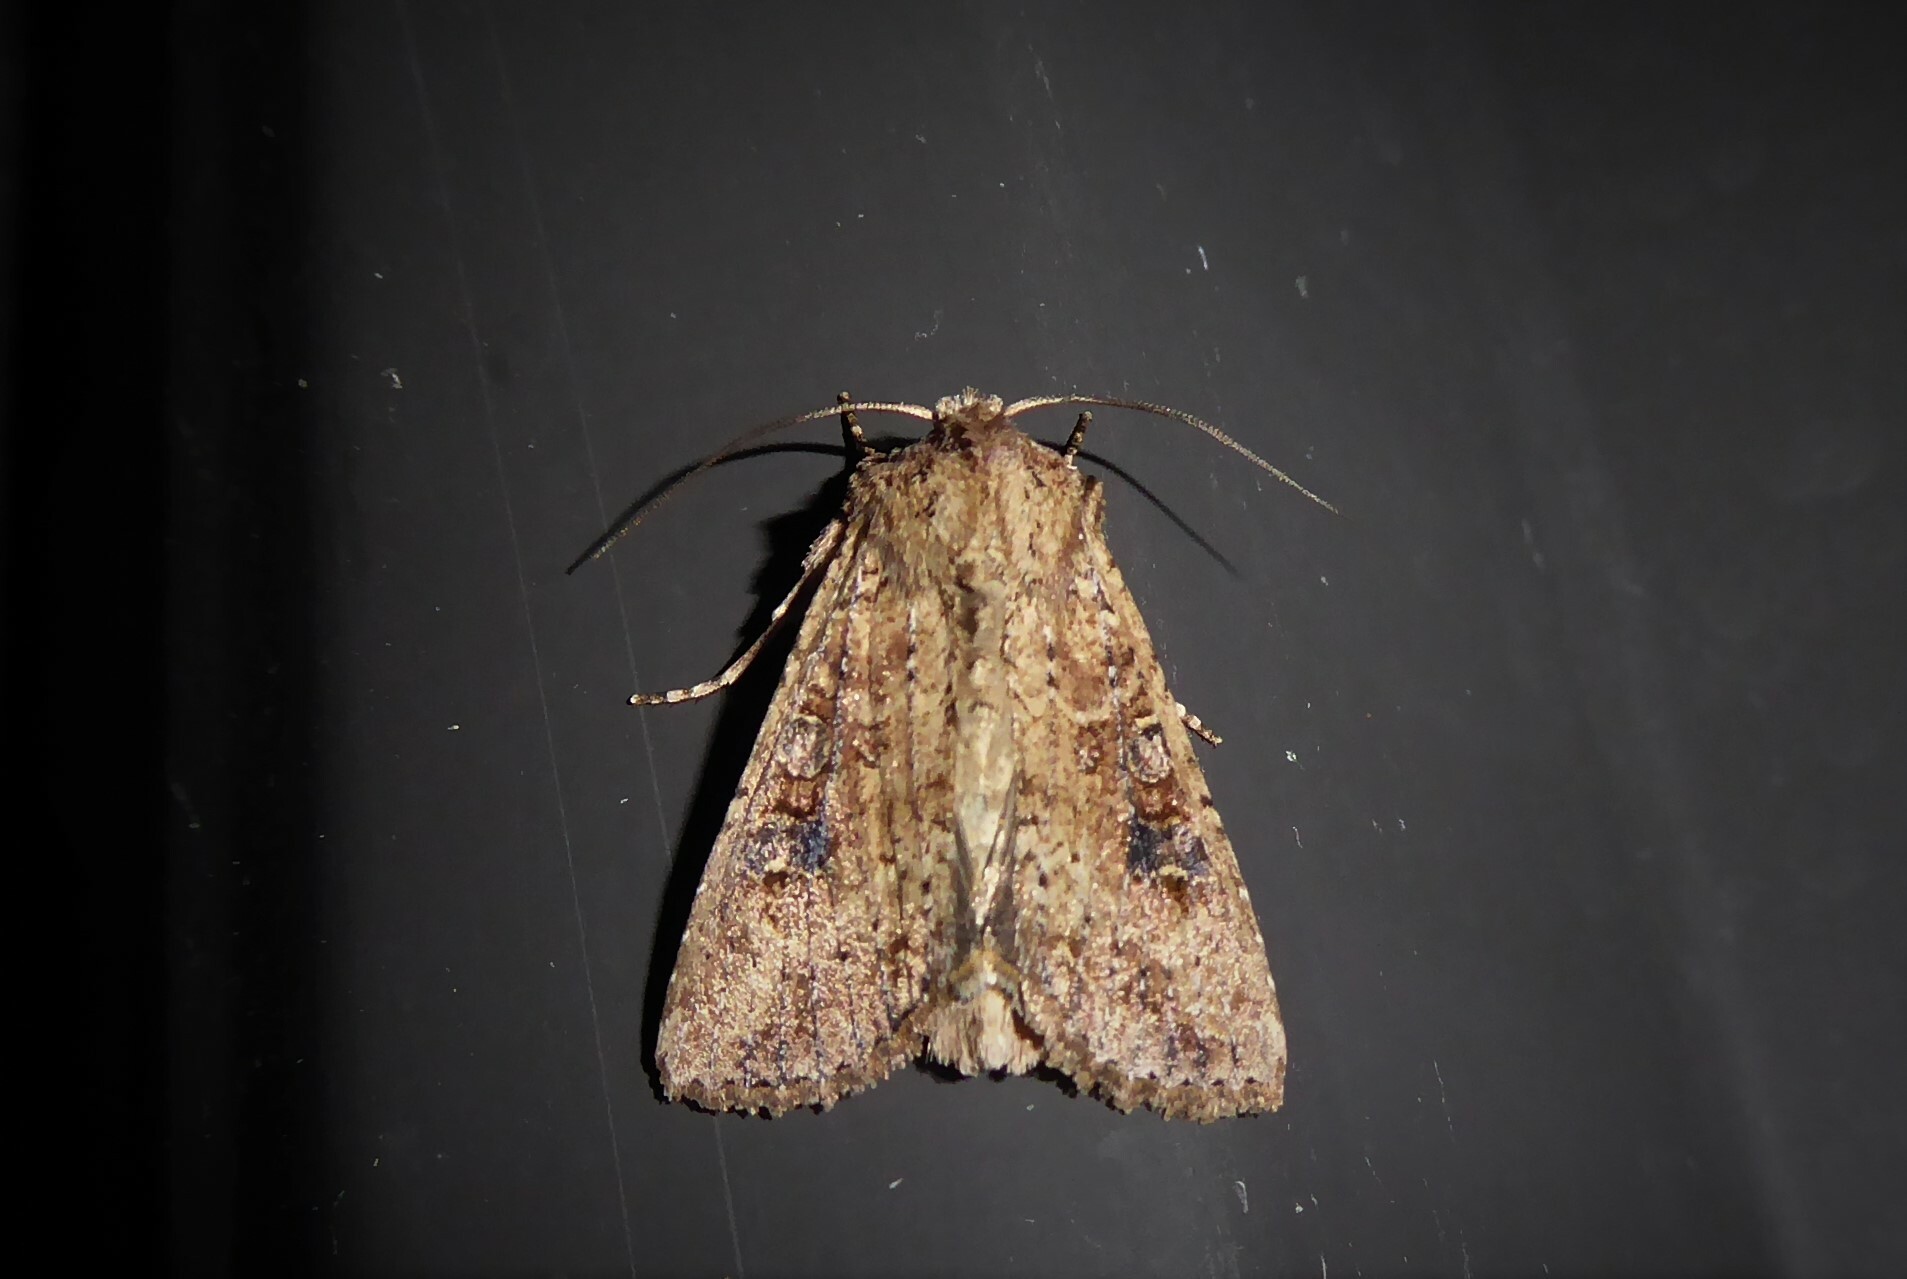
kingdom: Animalia
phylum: Arthropoda
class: Insecta
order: Lepidoptera
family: Noctuidae
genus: Ichneutica
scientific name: Ichneutica morosa
